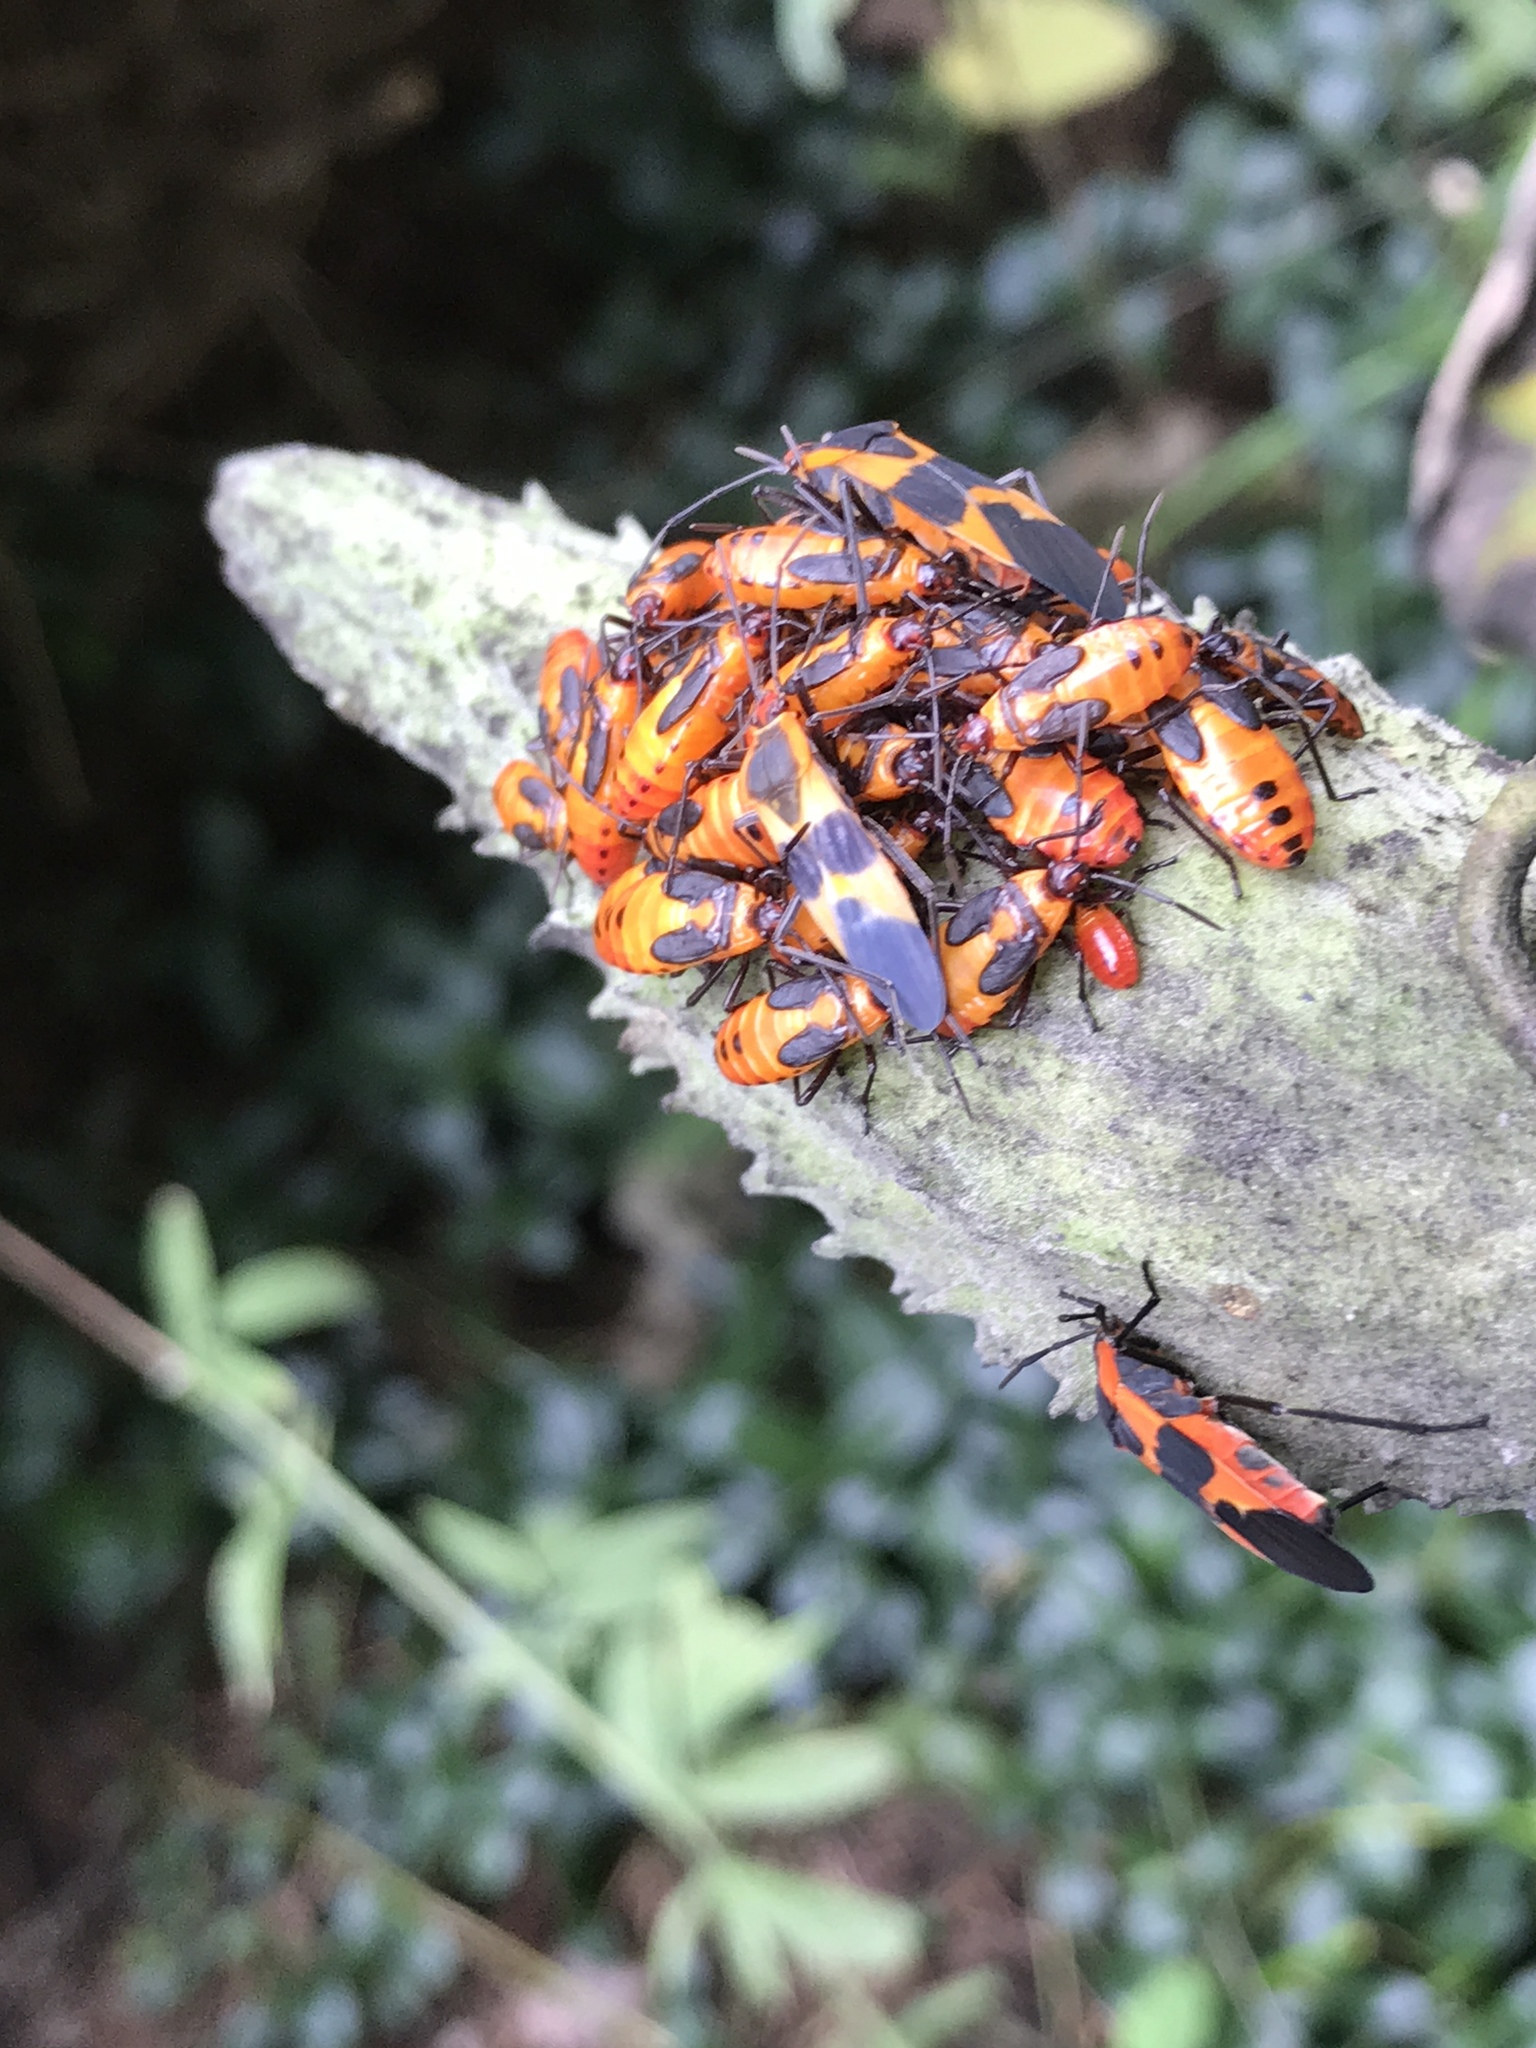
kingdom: Animalia
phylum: Arthropoda
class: Insecta
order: Hemiptera
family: Lygaeidae
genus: Oncopeltus
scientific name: Oncopeltus fasciatus
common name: Large milkweed bug
